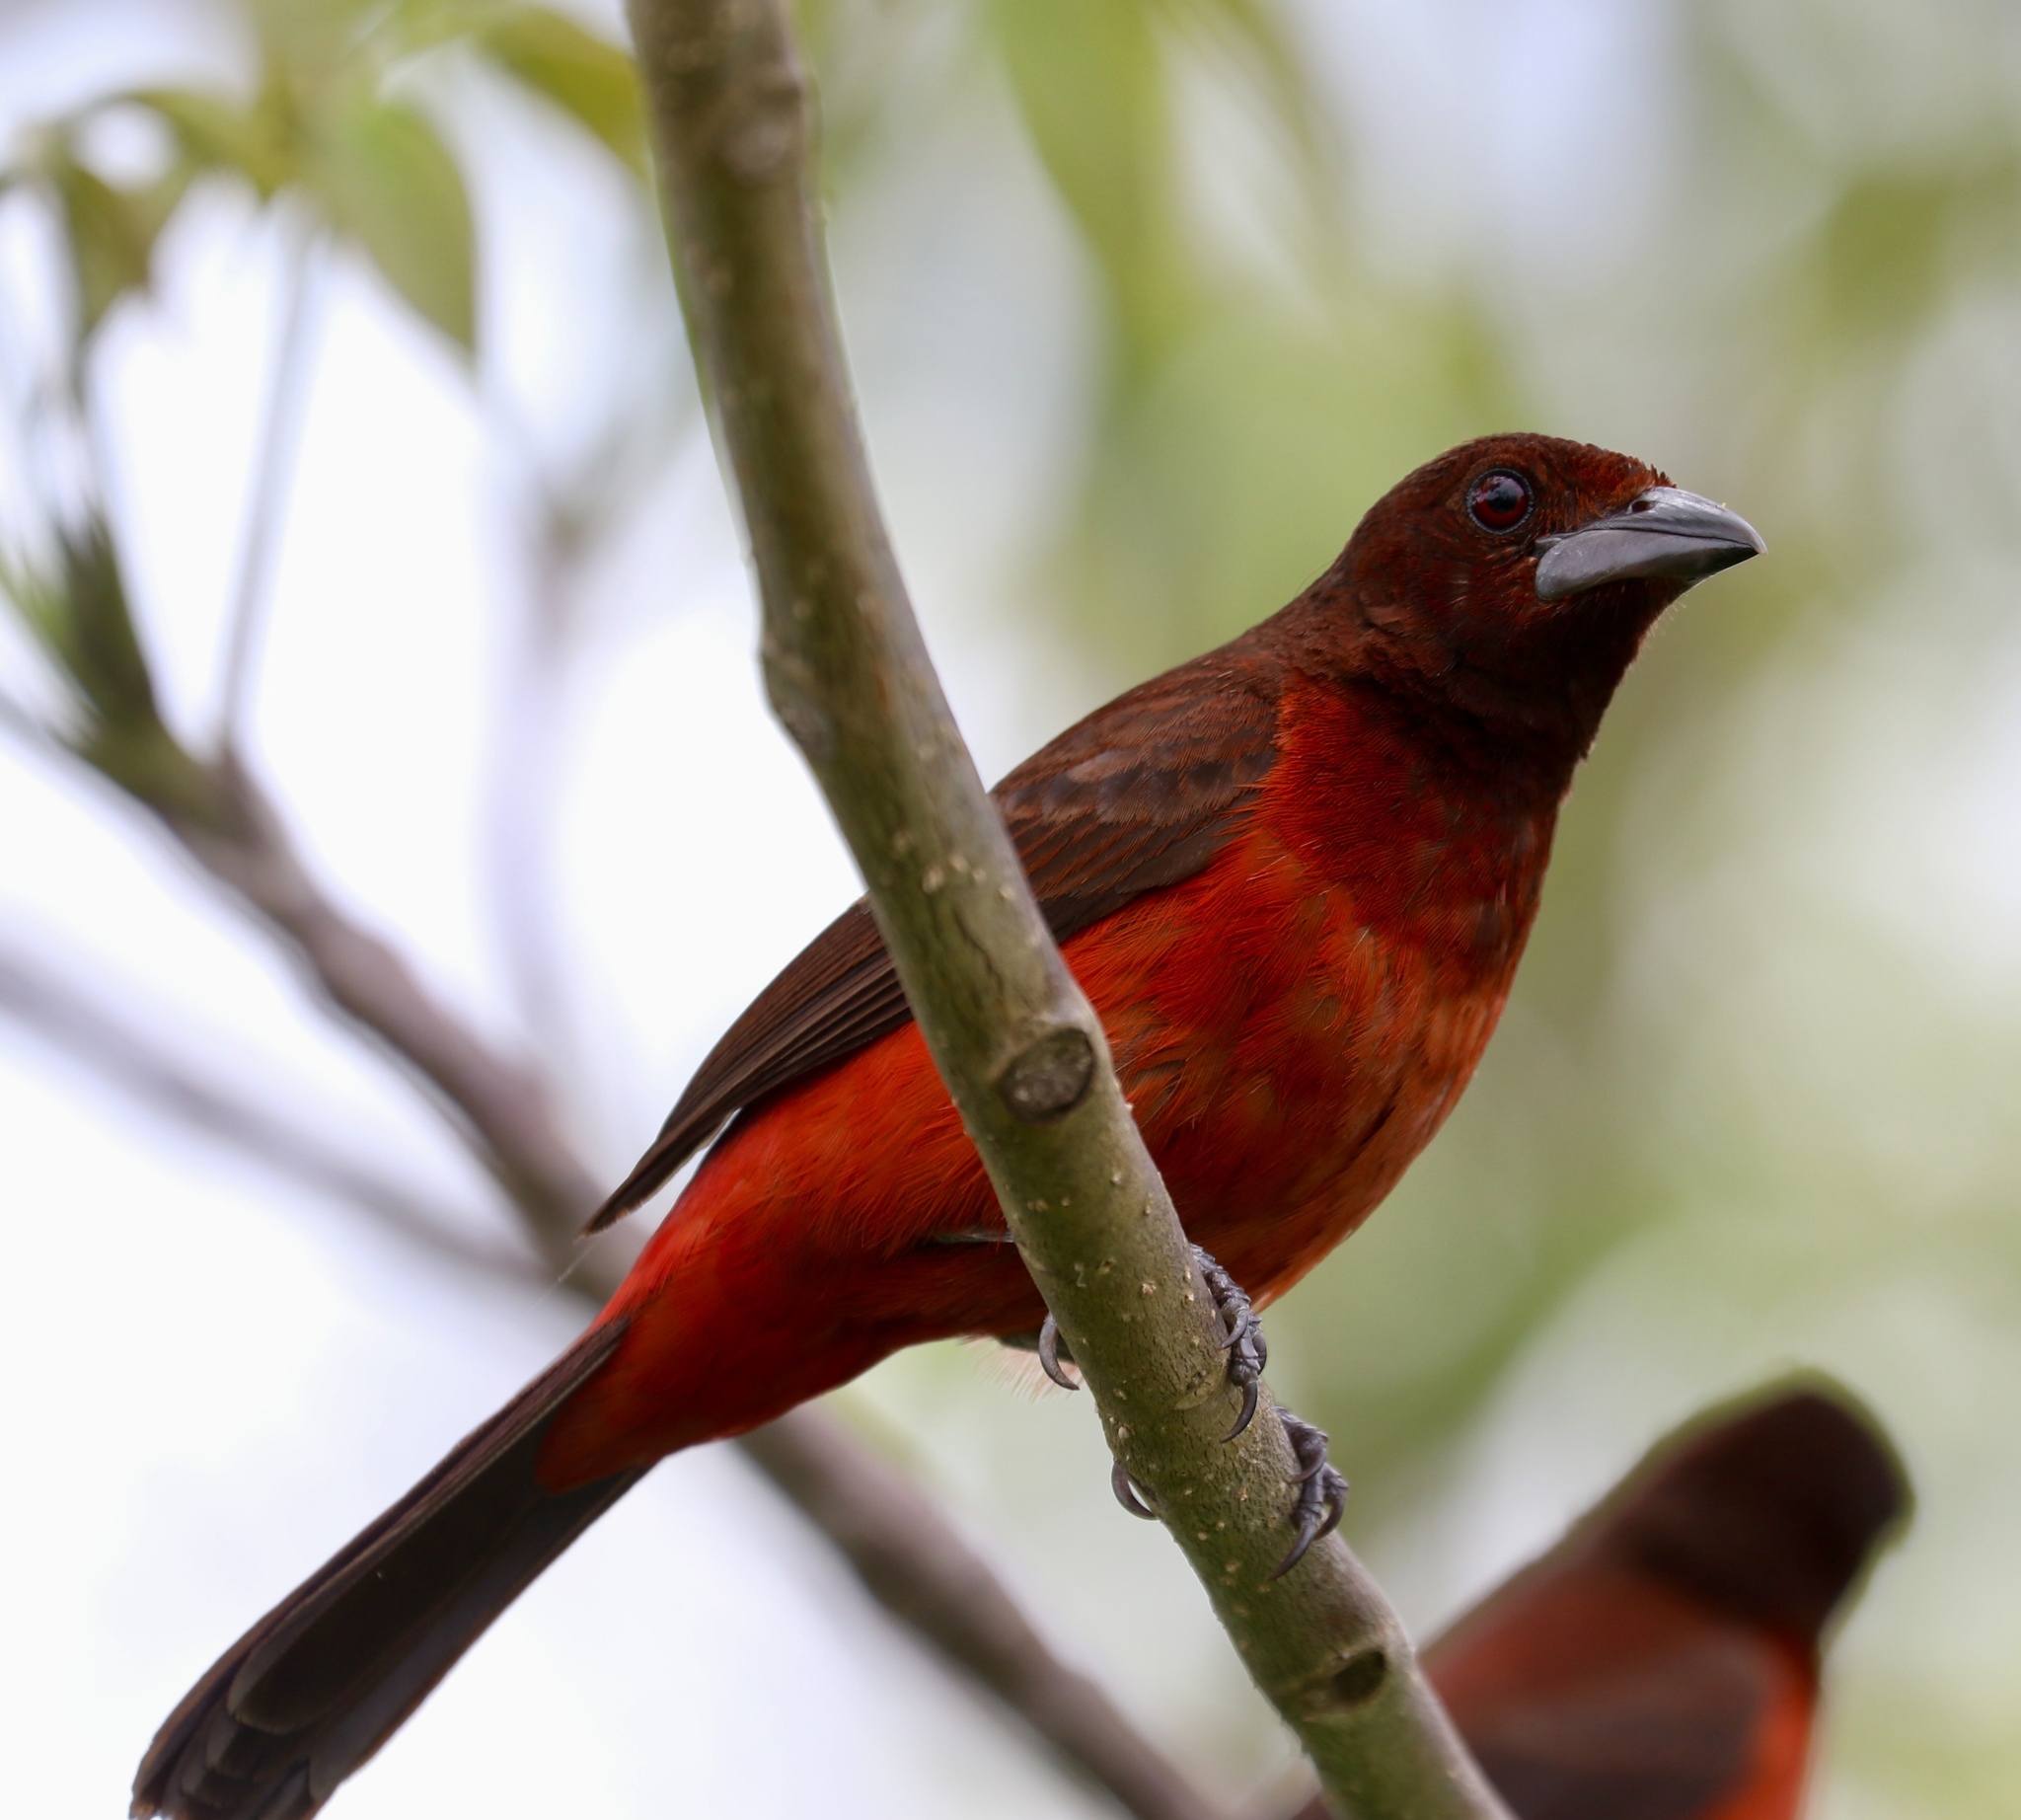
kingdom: Animalia
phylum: Chordata
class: Aves
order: Passeriformes
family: Thraupidae
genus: Ramphocelus
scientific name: Ramphocelus dimidiatus
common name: Crimson-backed tanager
